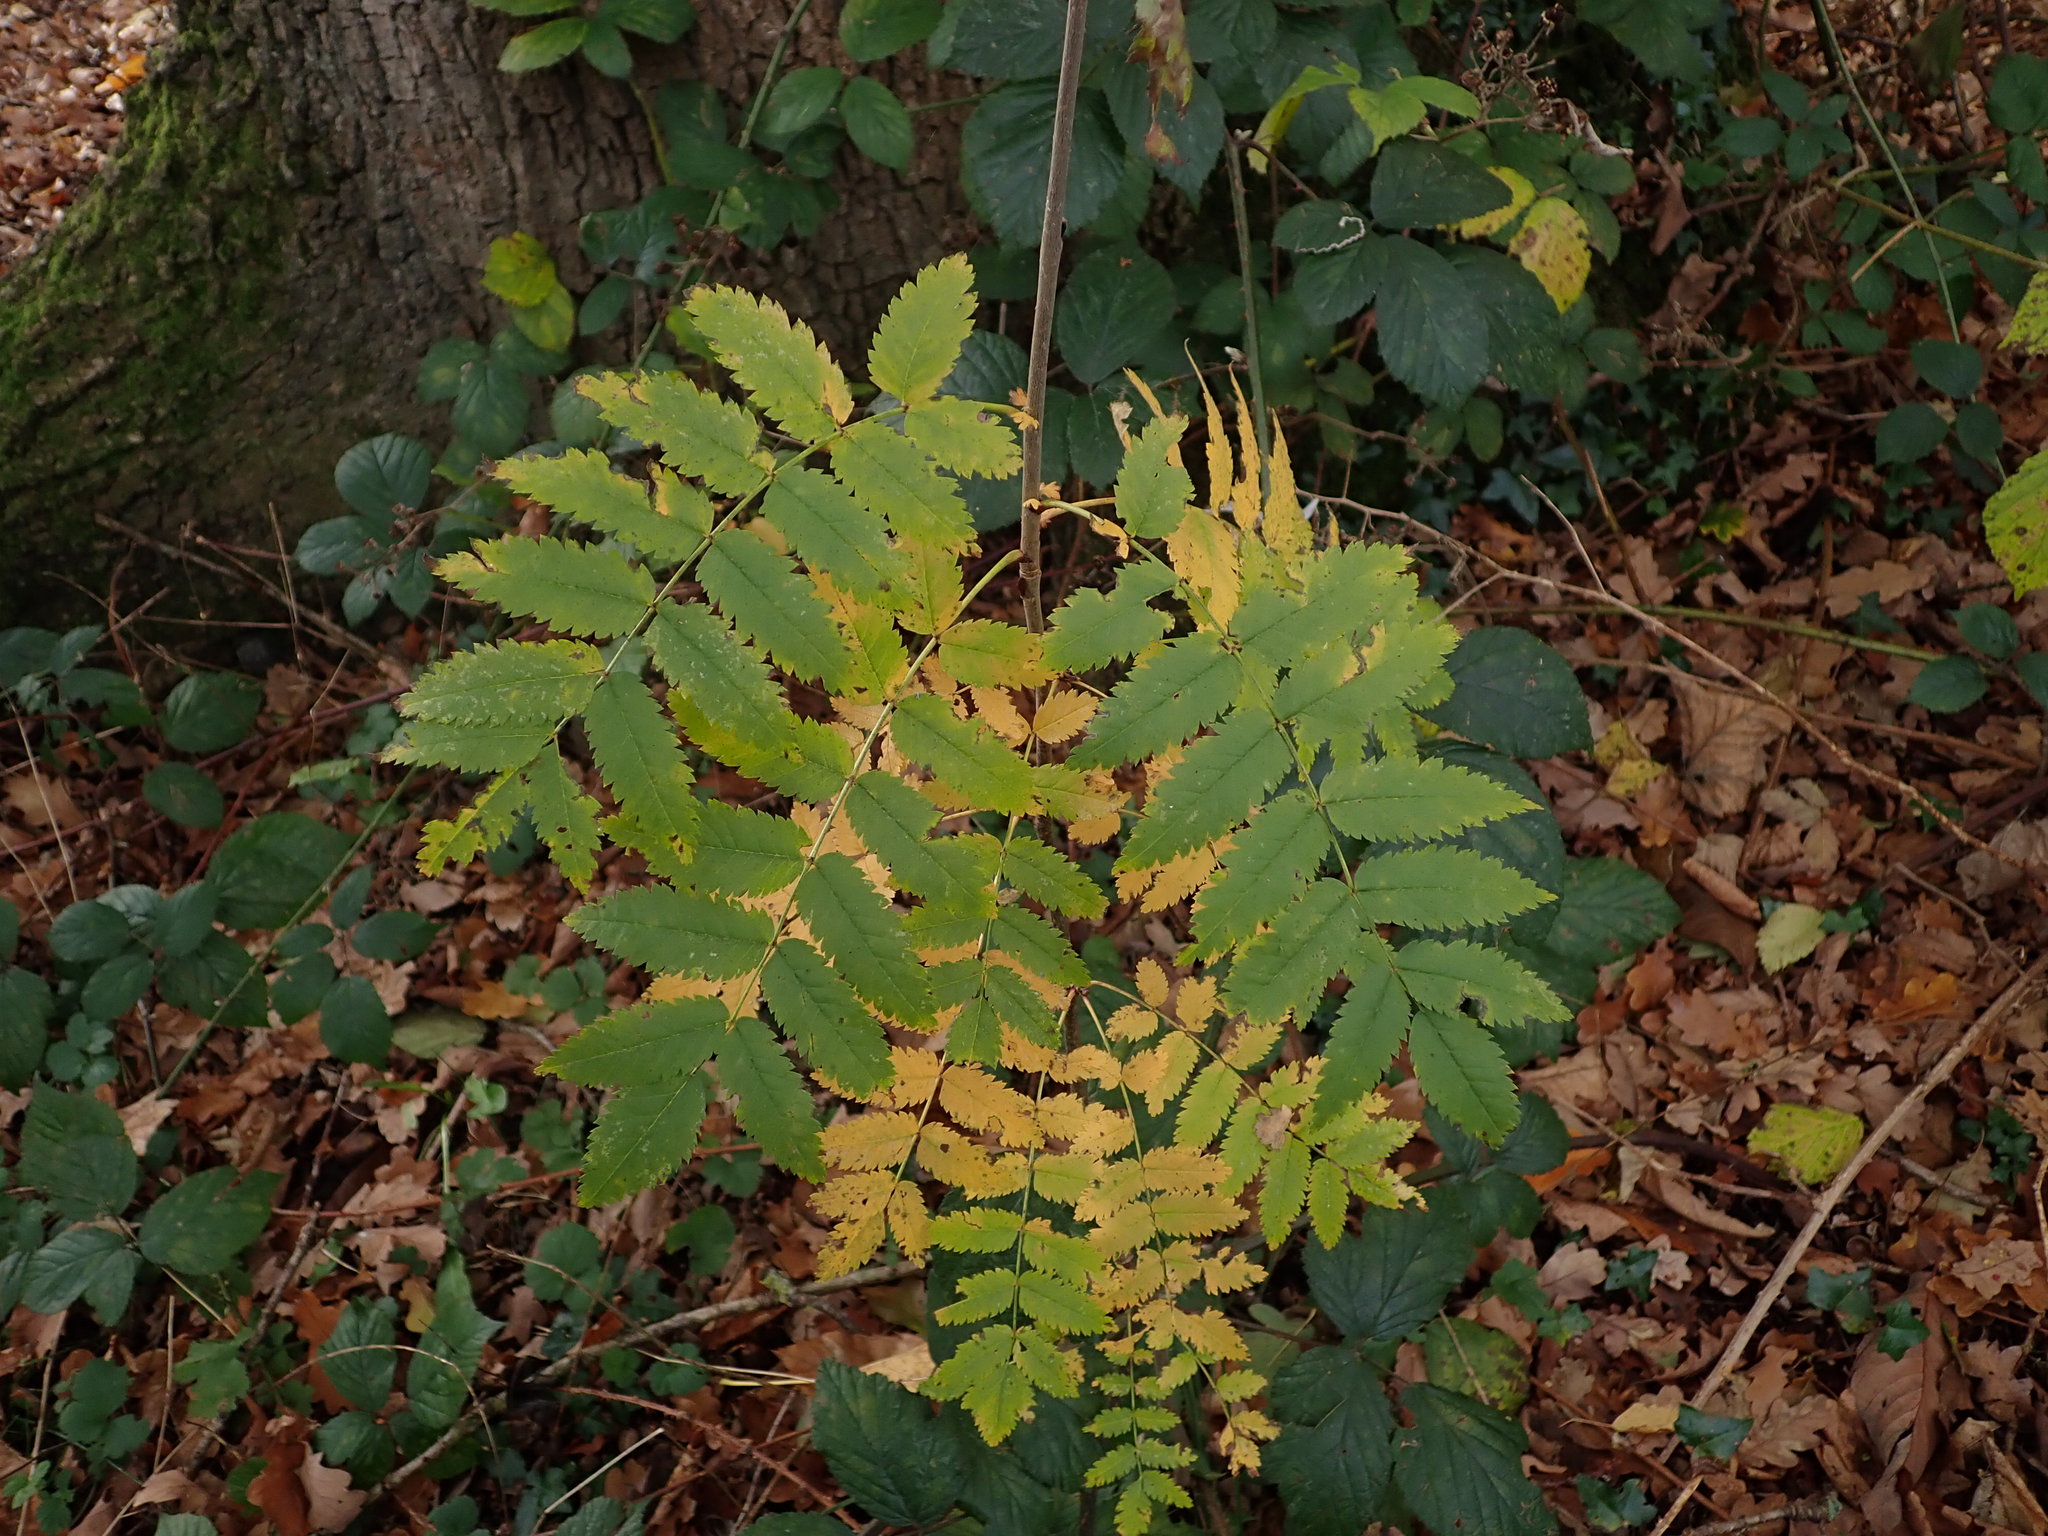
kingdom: Plantae
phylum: Tracheophyta
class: Magnoliopsida
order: Rosales
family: Rosaceae
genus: Sorbus
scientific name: Sorbus aucuparia
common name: Rowan
